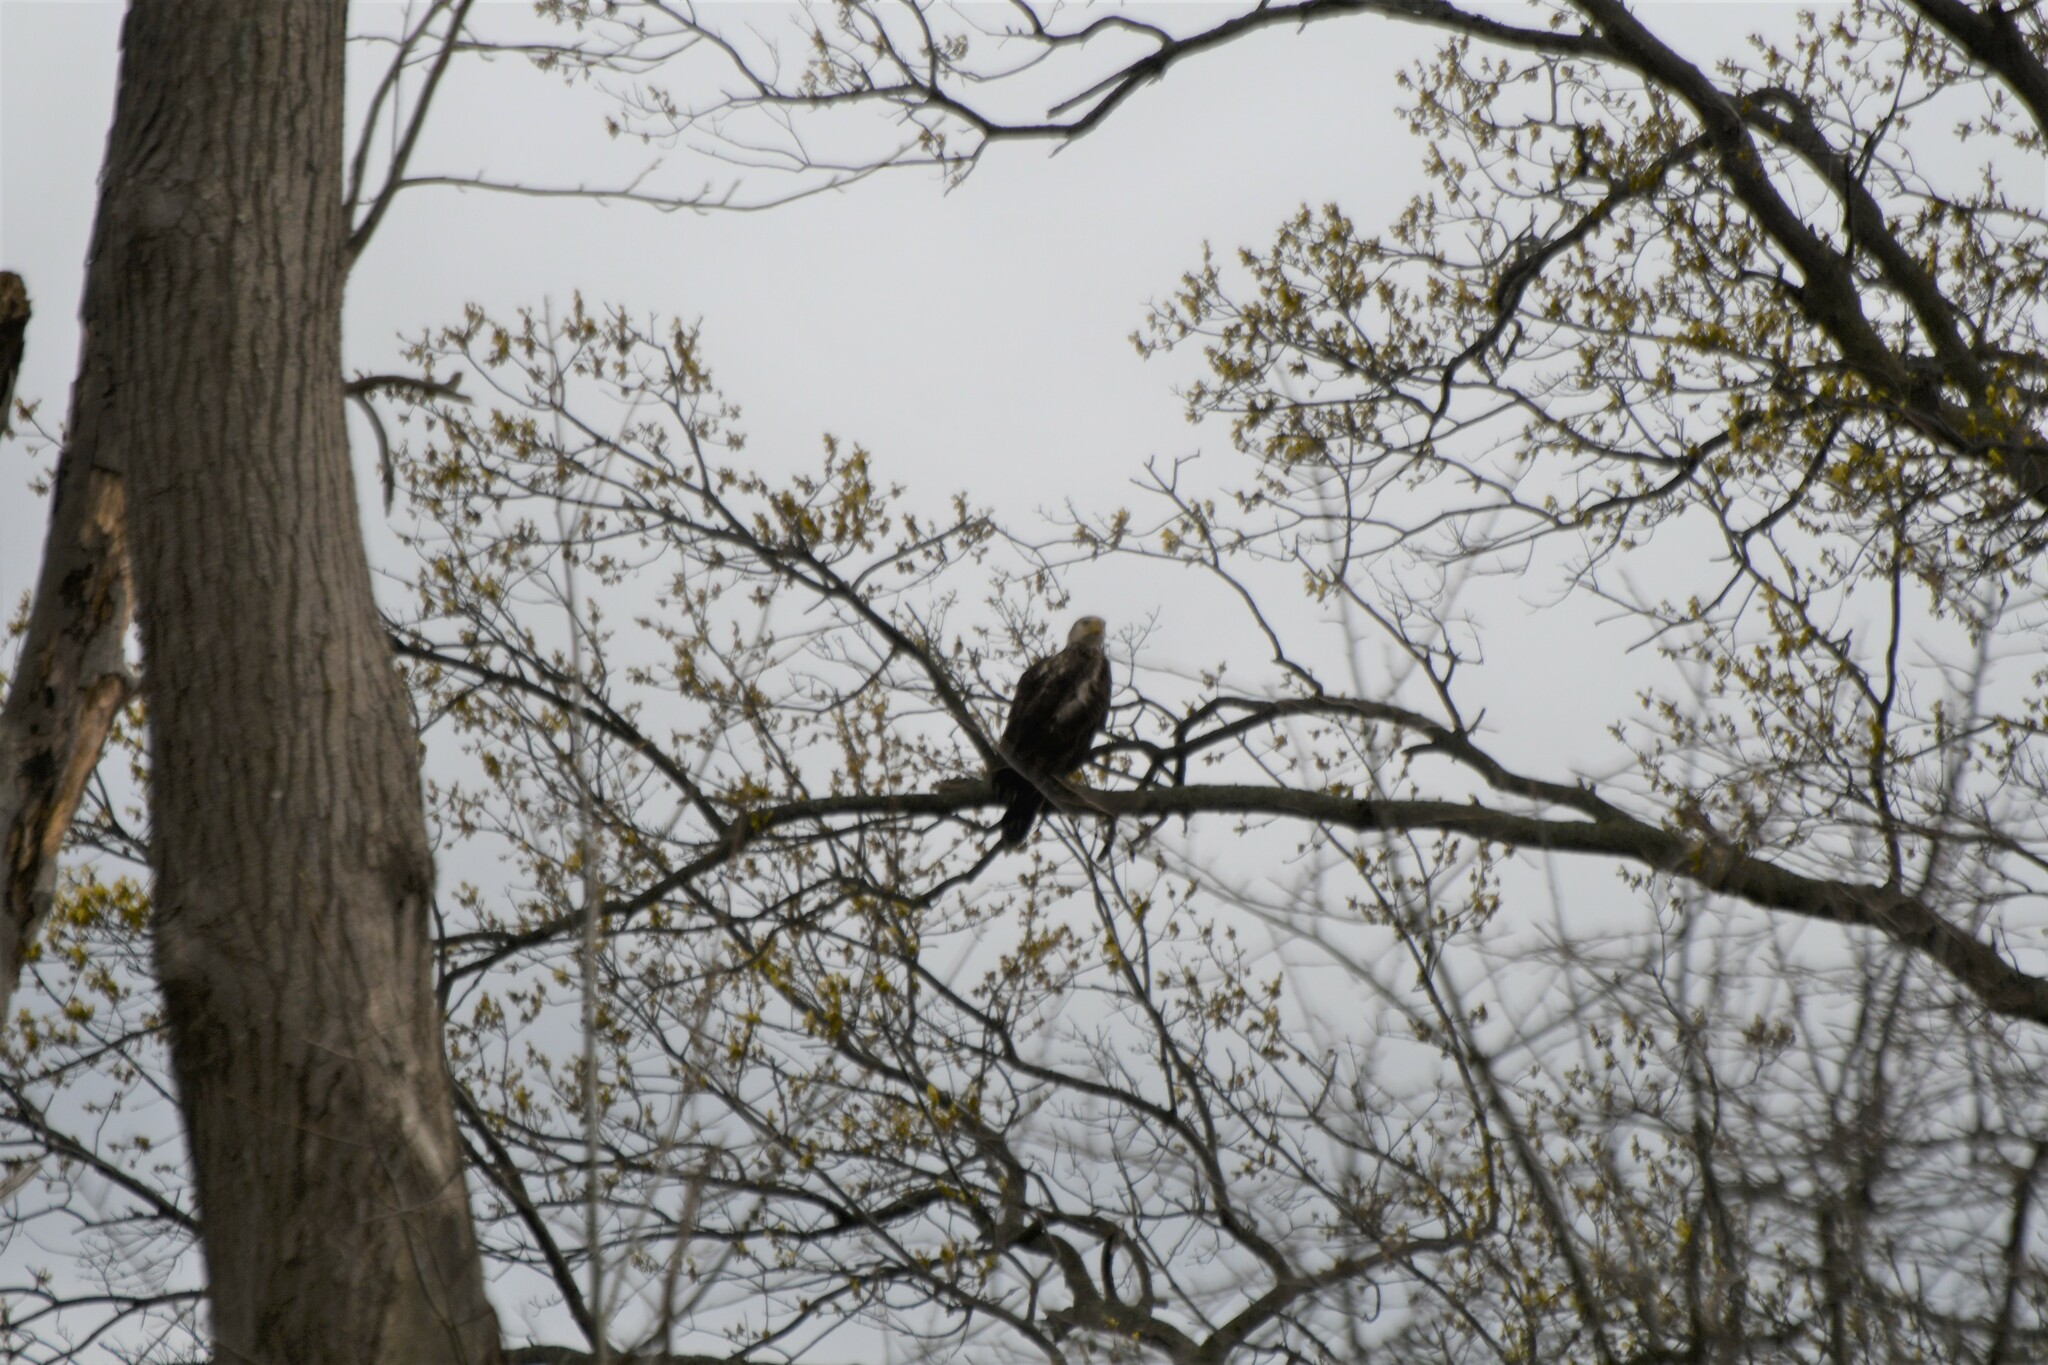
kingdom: Animalia
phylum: Chordata
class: Aves
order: Accipitriformes
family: Accipitridae
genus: Haliaeetus
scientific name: Haliaeetus leucocephalus
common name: Bald eagle
